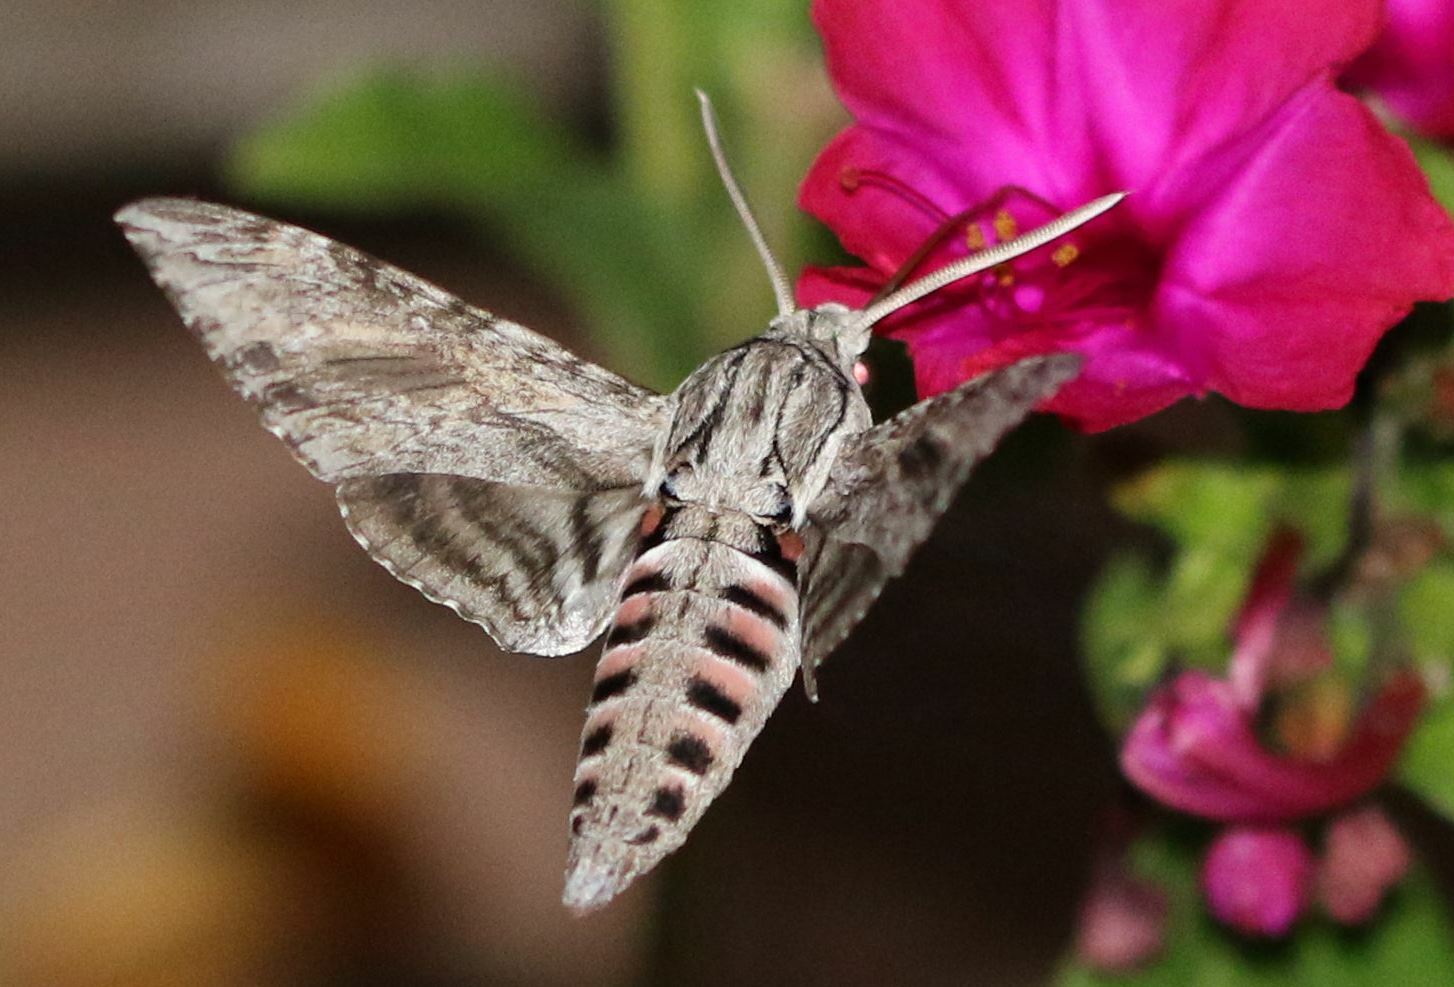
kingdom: Animalia
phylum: Arthropoda
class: Insecta
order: Lepidoptera
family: Sphingidae
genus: Agrius
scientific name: Agrius convolvuli
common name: Convolvulus hawkmoth
